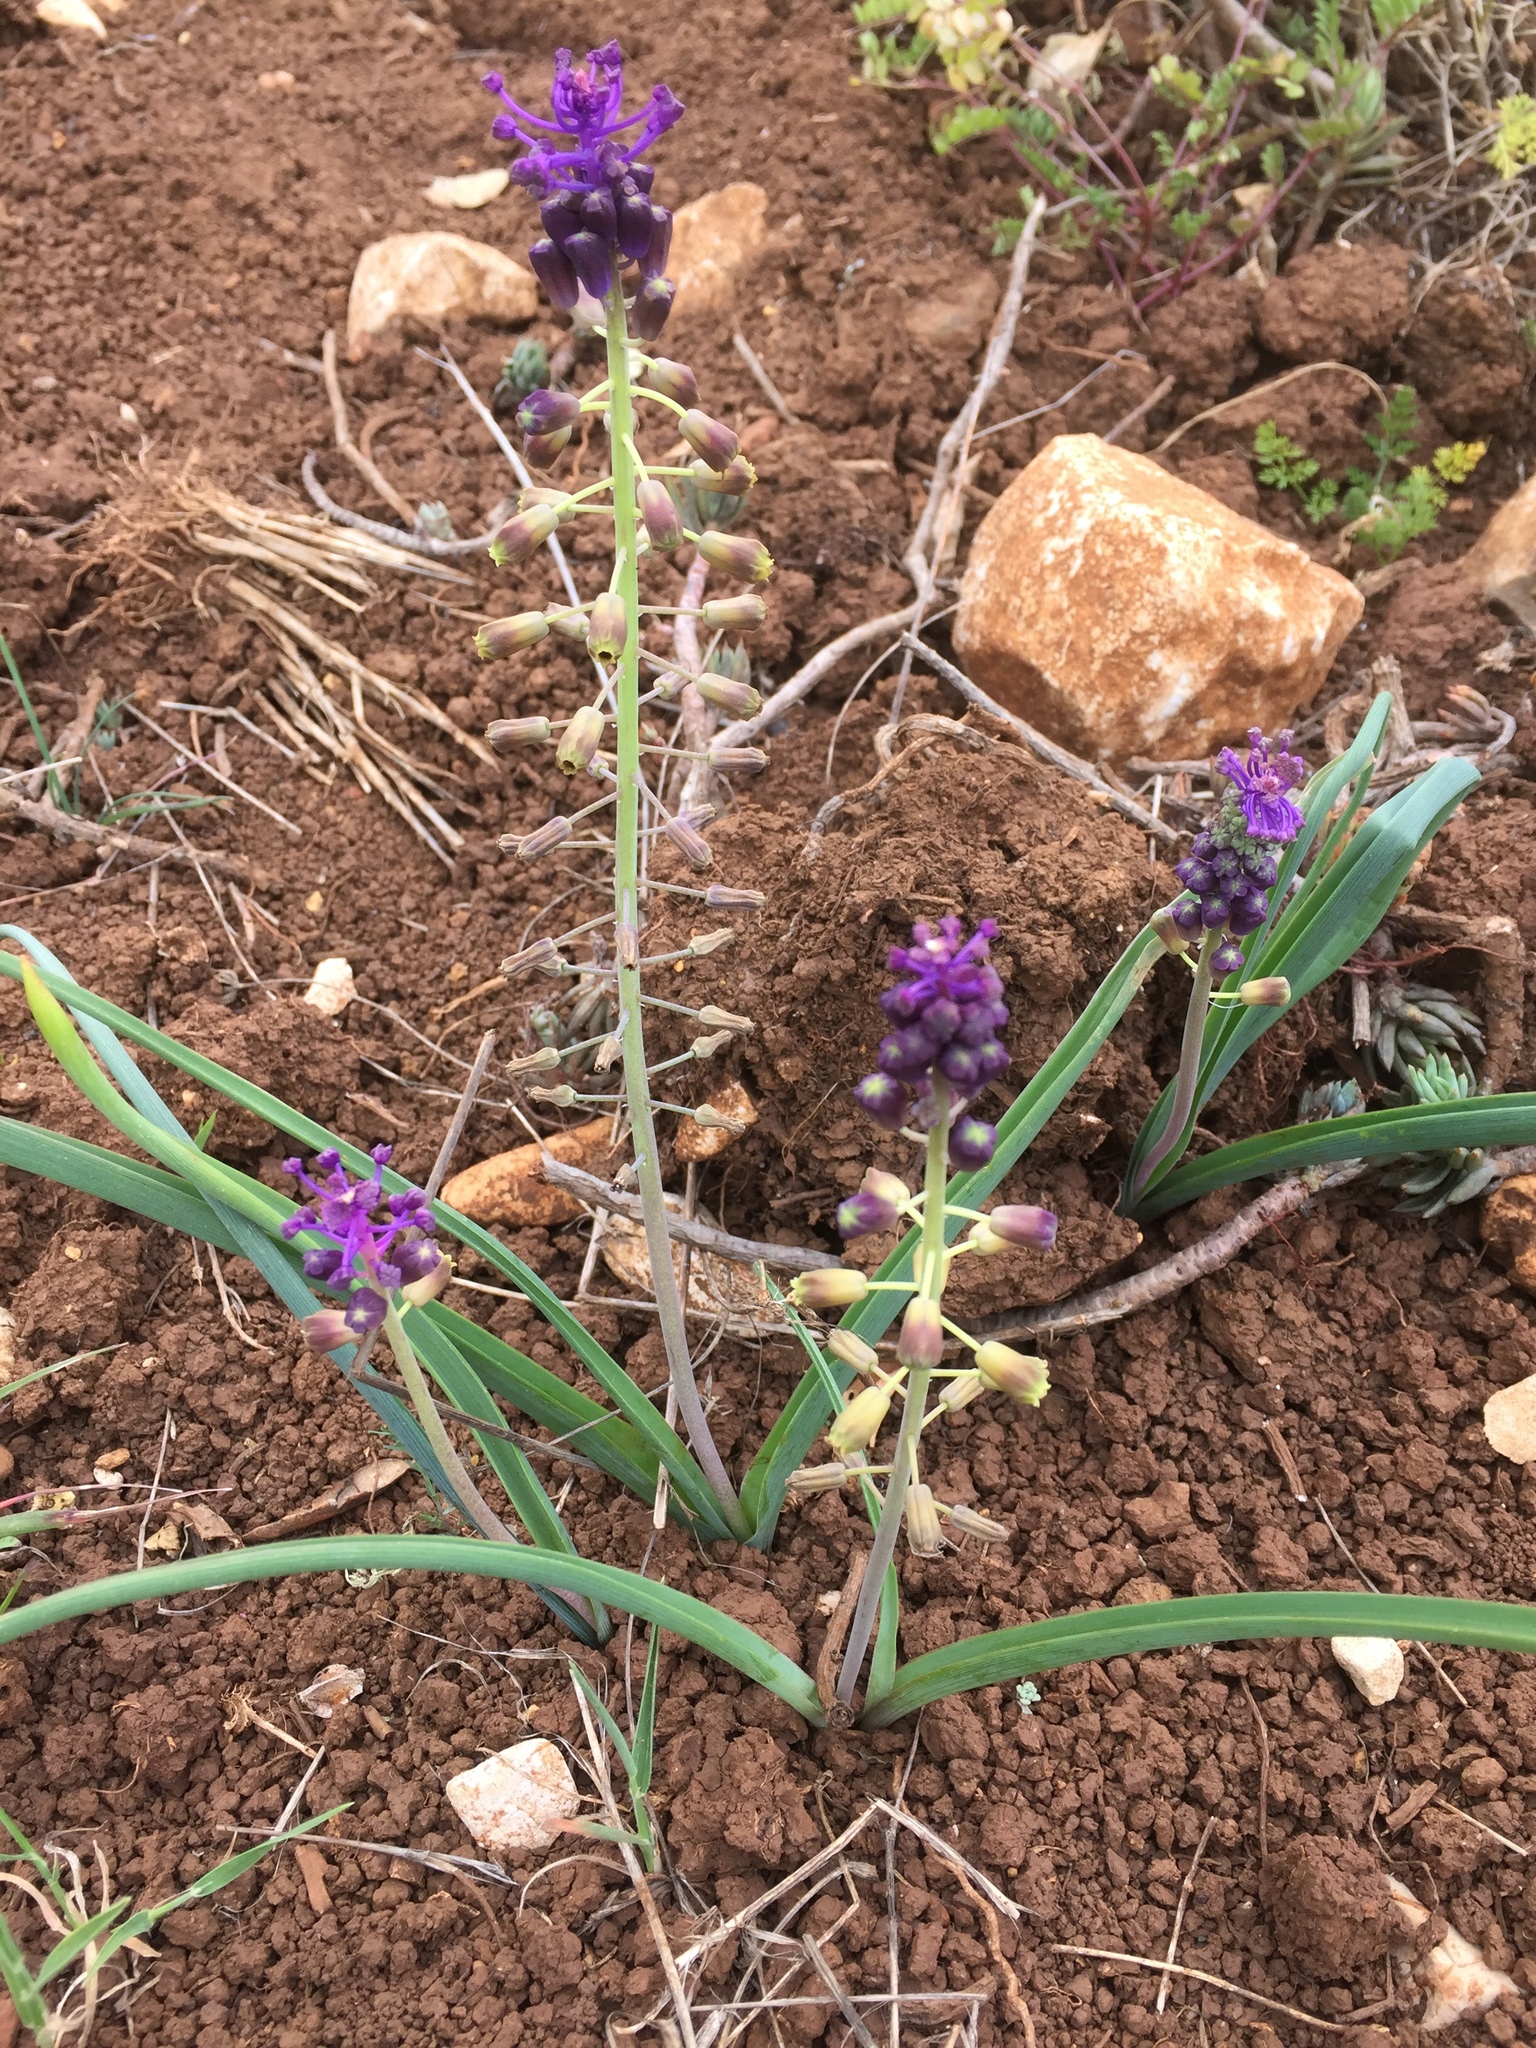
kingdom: Plantae
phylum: Tracheophyta
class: Liliopsida
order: Asparagales
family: Asparagaceae
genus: Muscari
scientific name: Muscari comosum
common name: Tassel hyacinth
